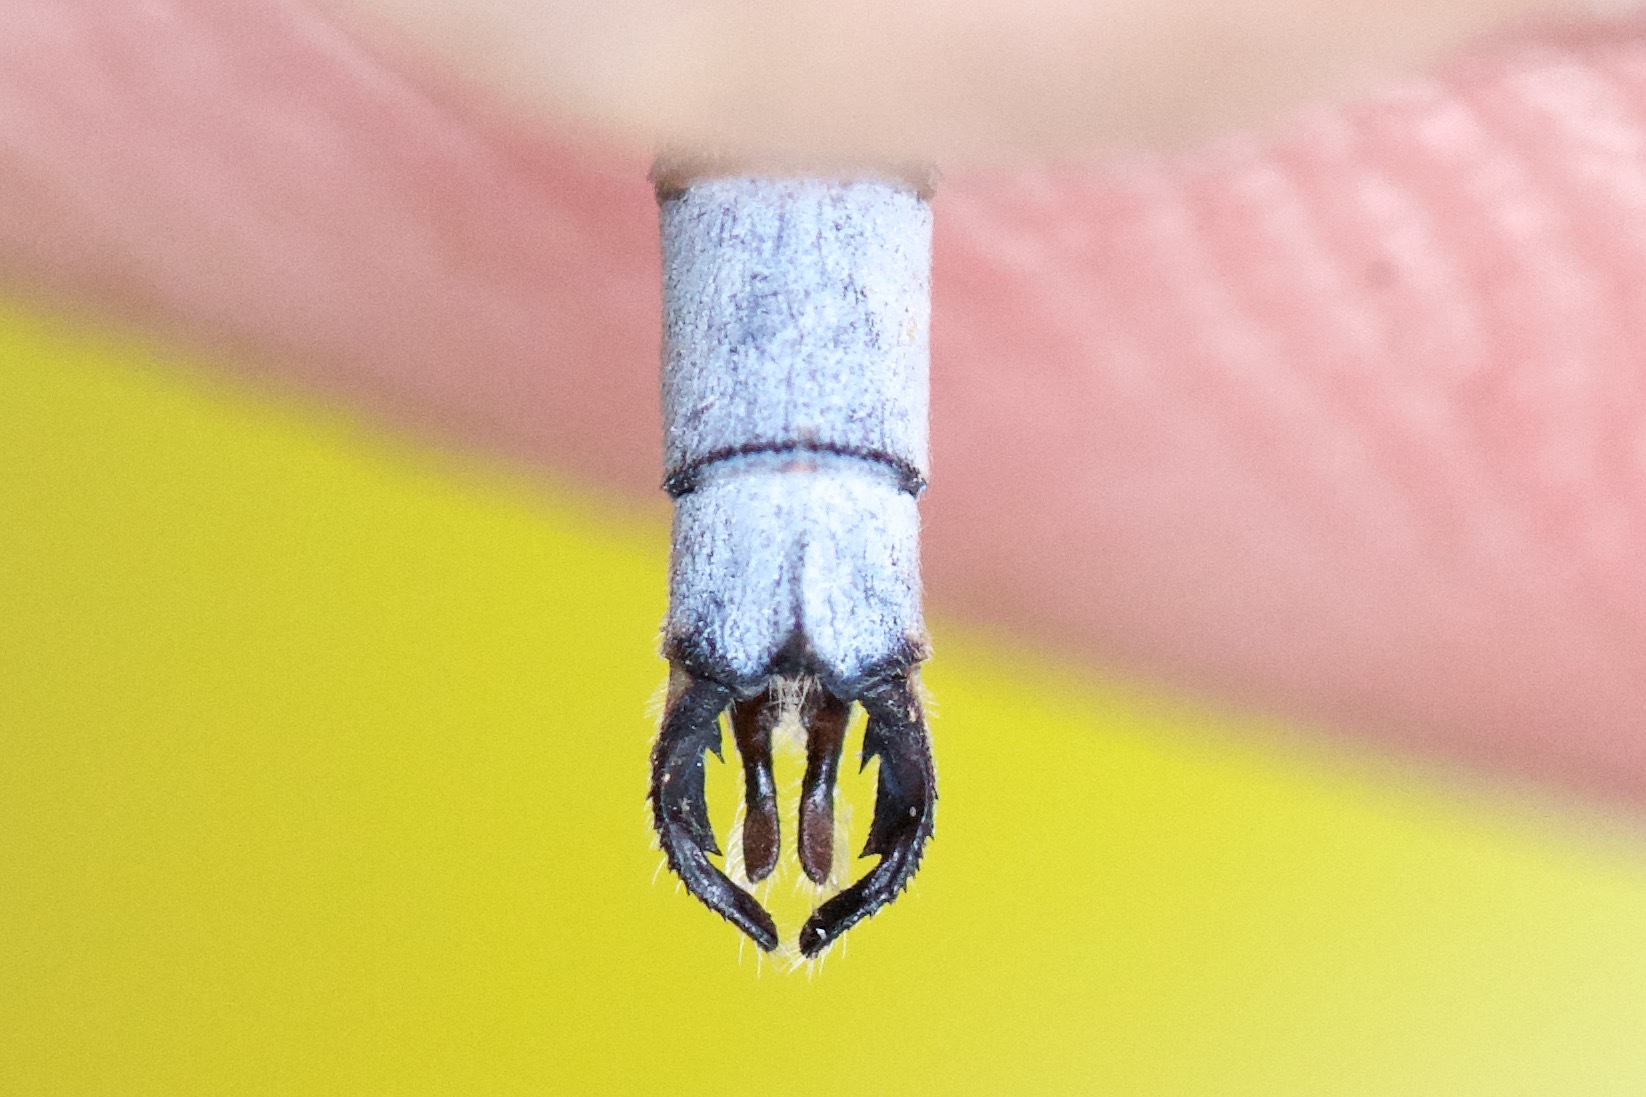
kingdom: Animalia
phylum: Arthropoda
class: Insecta
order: Odonata
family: Lestidae
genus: Lestes
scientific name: Lestes disjunctus
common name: Northern spreadwing
